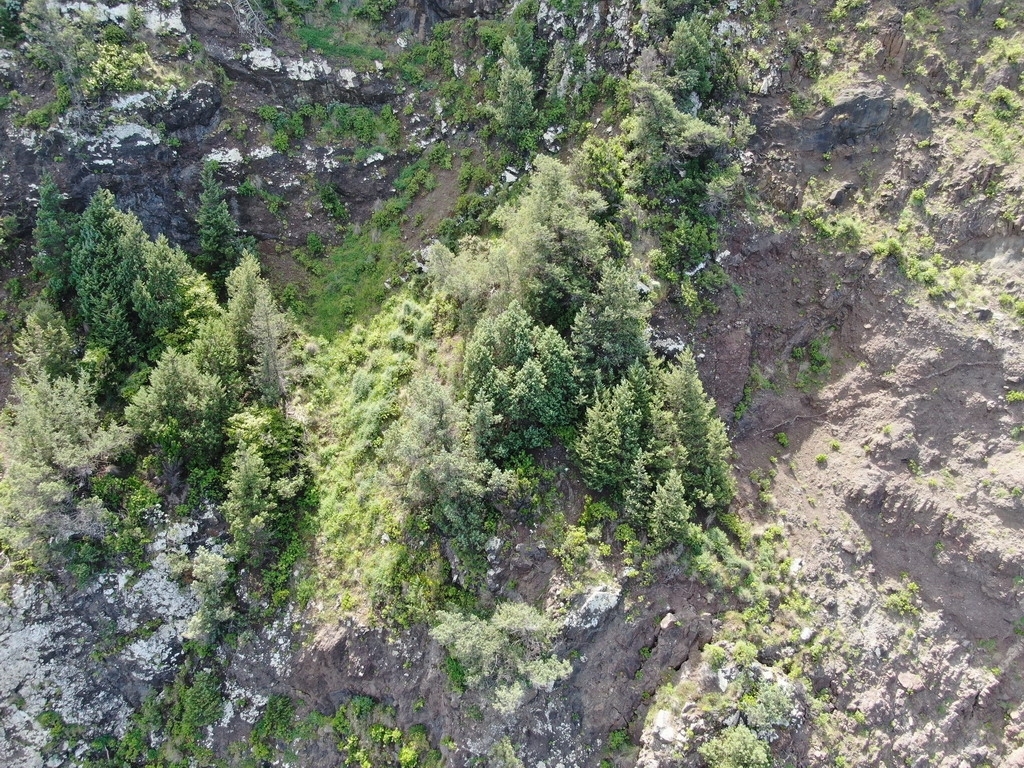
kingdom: Plantae
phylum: Tracheophyta
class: Pinopsida
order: Pinales
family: Cupressaceae
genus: Juniperus
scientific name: Juniperus canariensis
